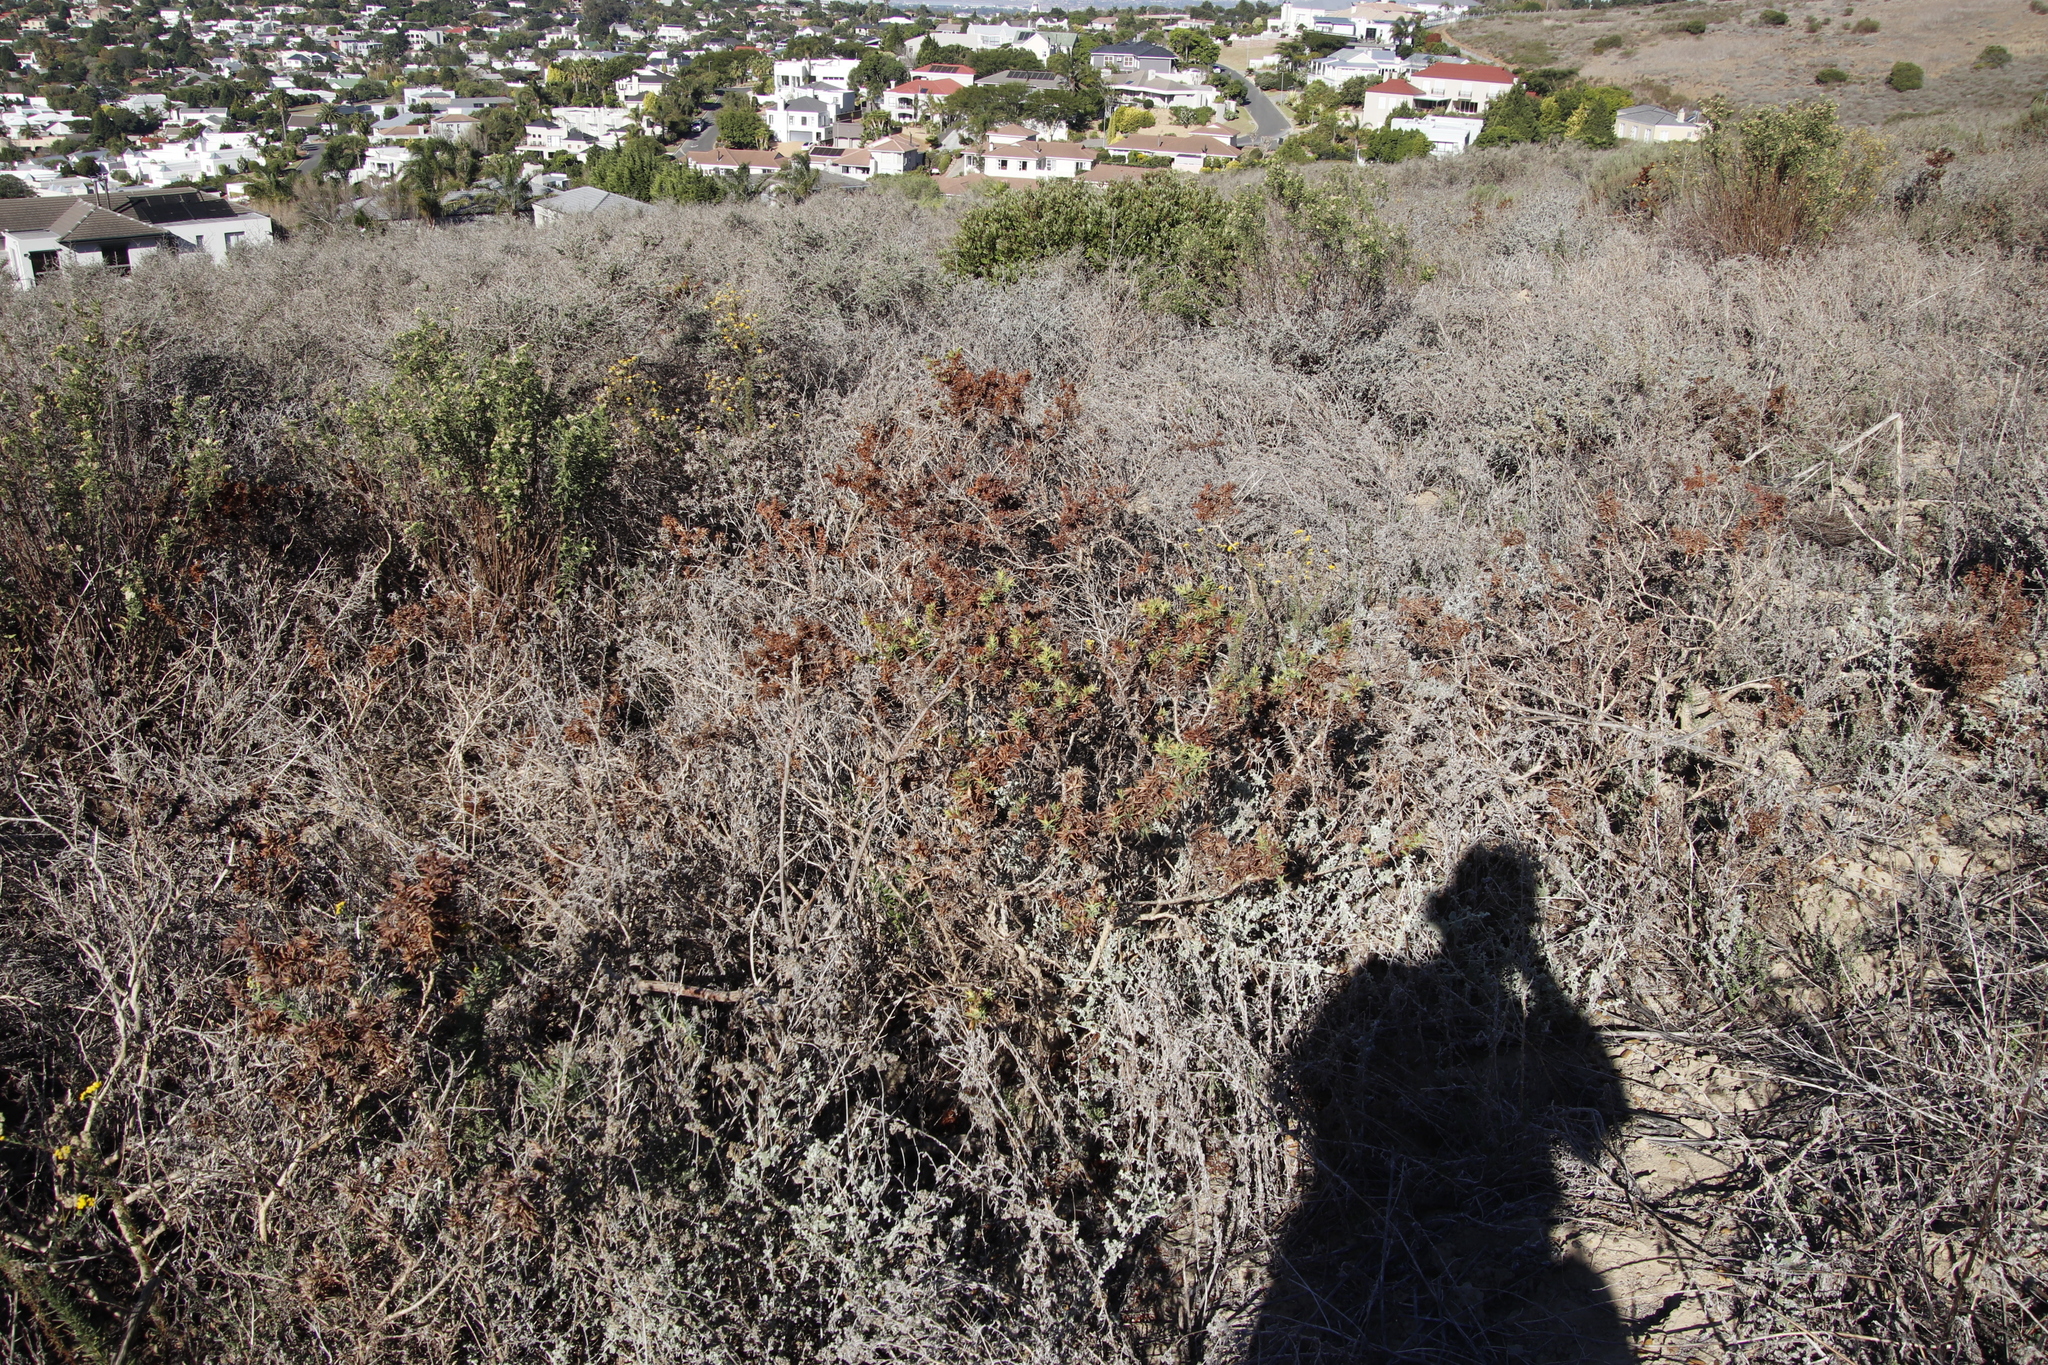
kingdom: Plantae
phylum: Tracheophyta
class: Magnoliopsida
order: Fabales
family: Fabaceae
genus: Aspalathus
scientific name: Aspalathus cordata
